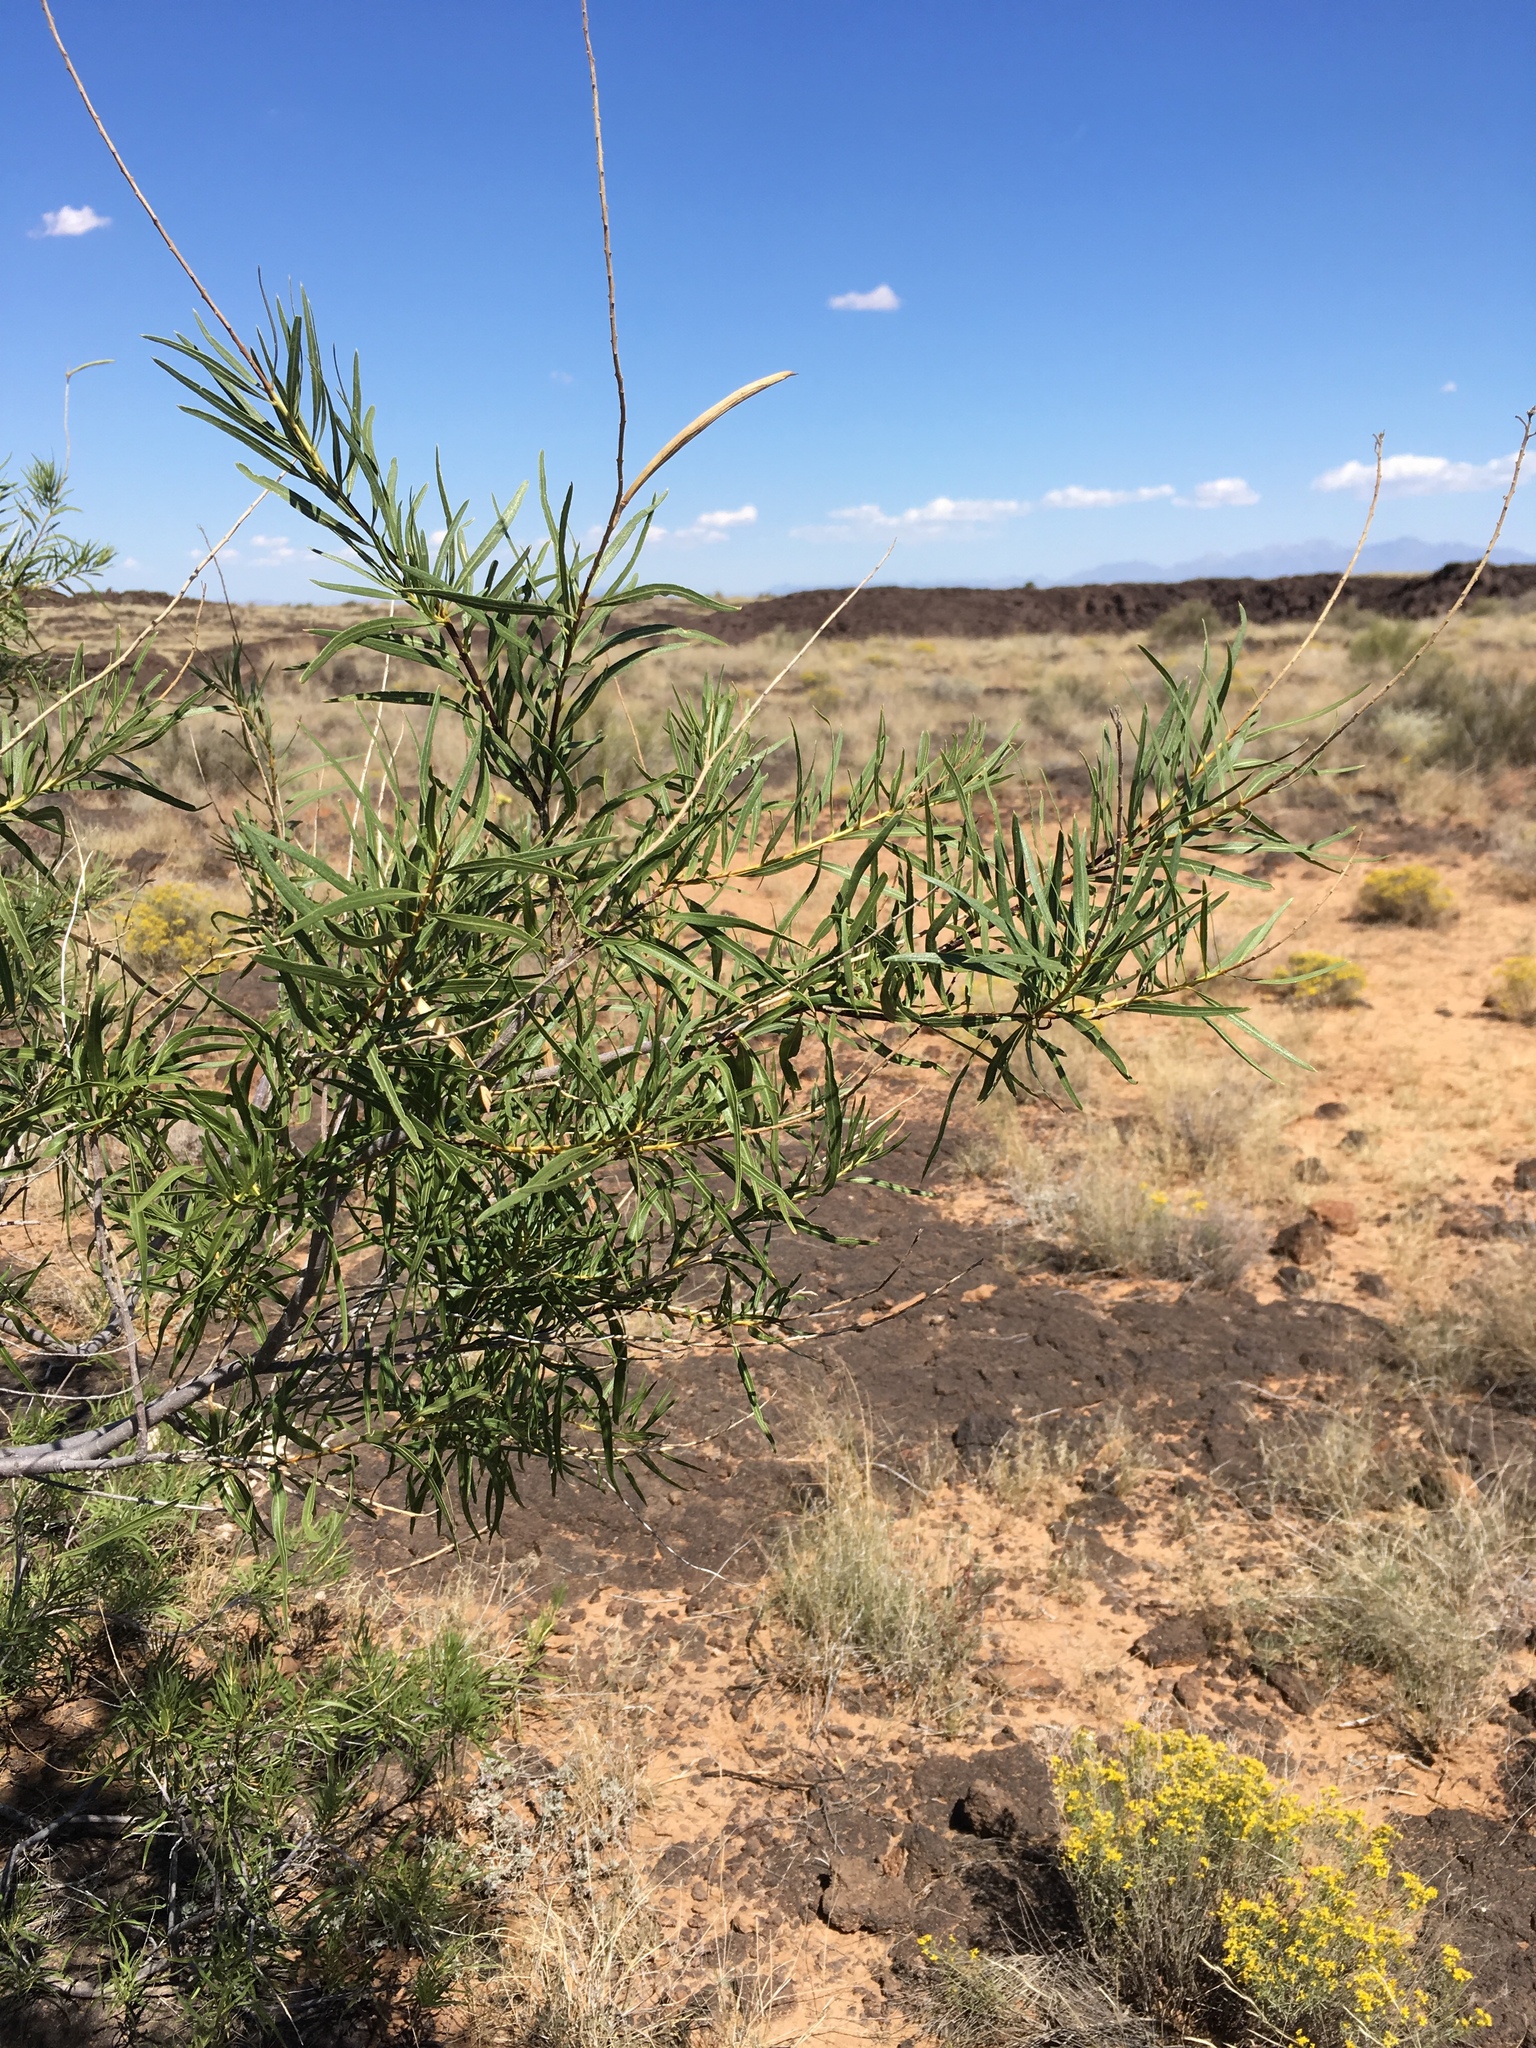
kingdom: Plantae
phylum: Tracheophyta
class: Magnoliopsida
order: Lamiales
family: Bignoniaceae
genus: Chilopsis
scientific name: Chilopsis linearis
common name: Desert-willow
